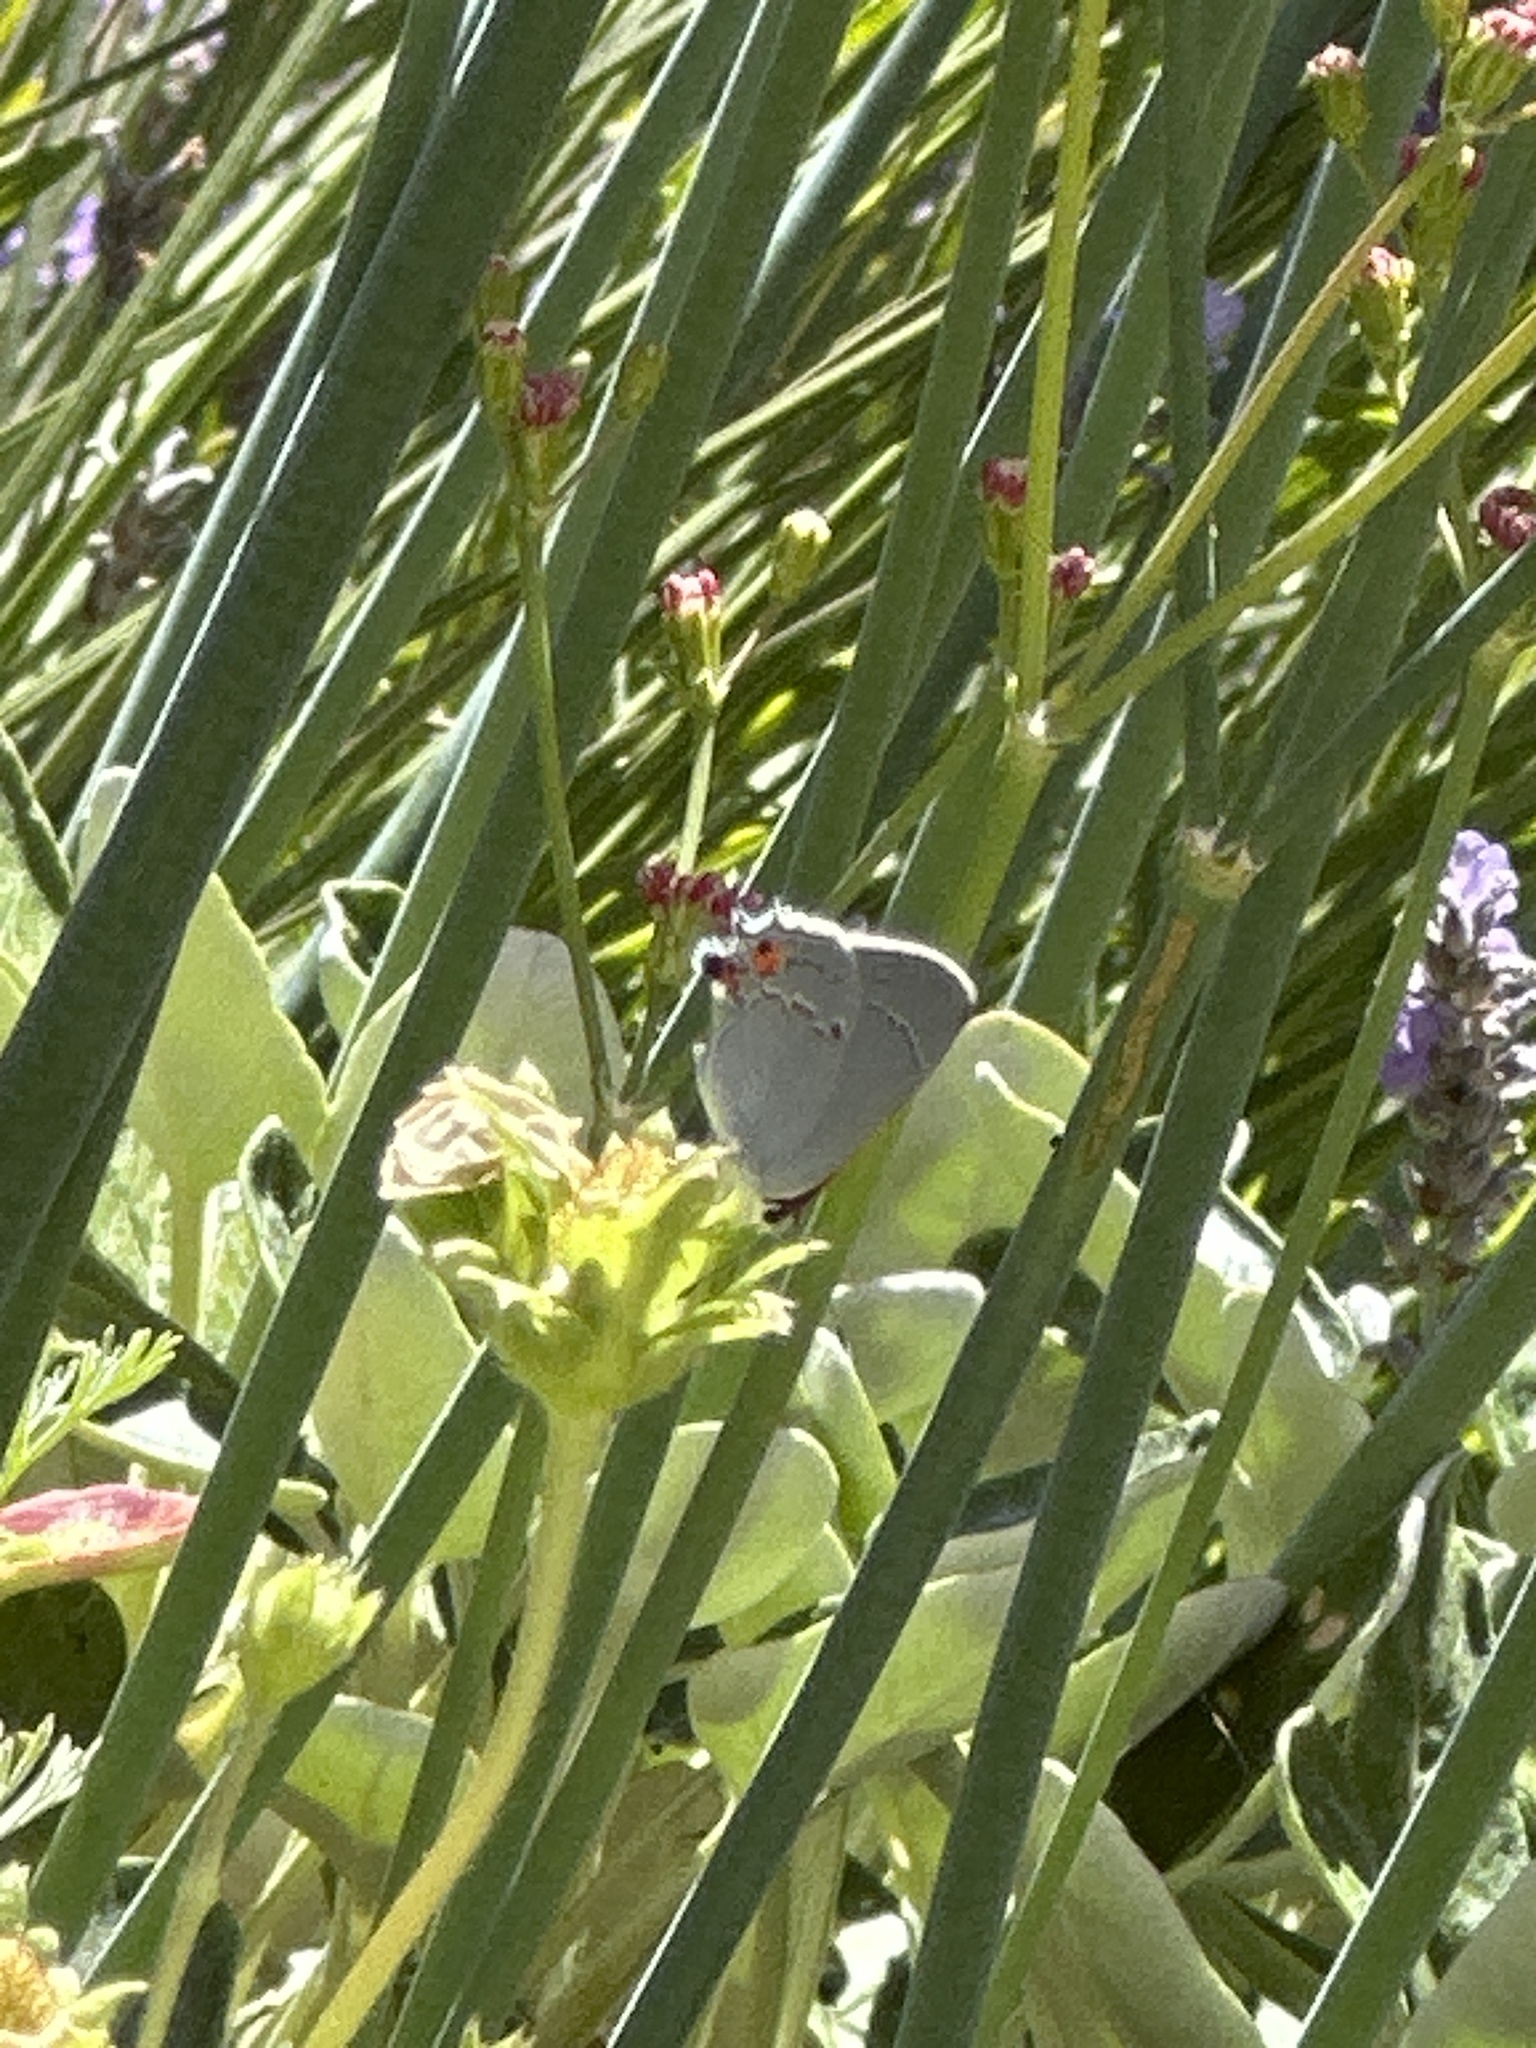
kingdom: Animalia
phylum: Arthropoda
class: Insecta
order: Lepidoptera
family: Lycaenidae
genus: Strymon
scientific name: Strymon melinus
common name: Gray hairstreak
